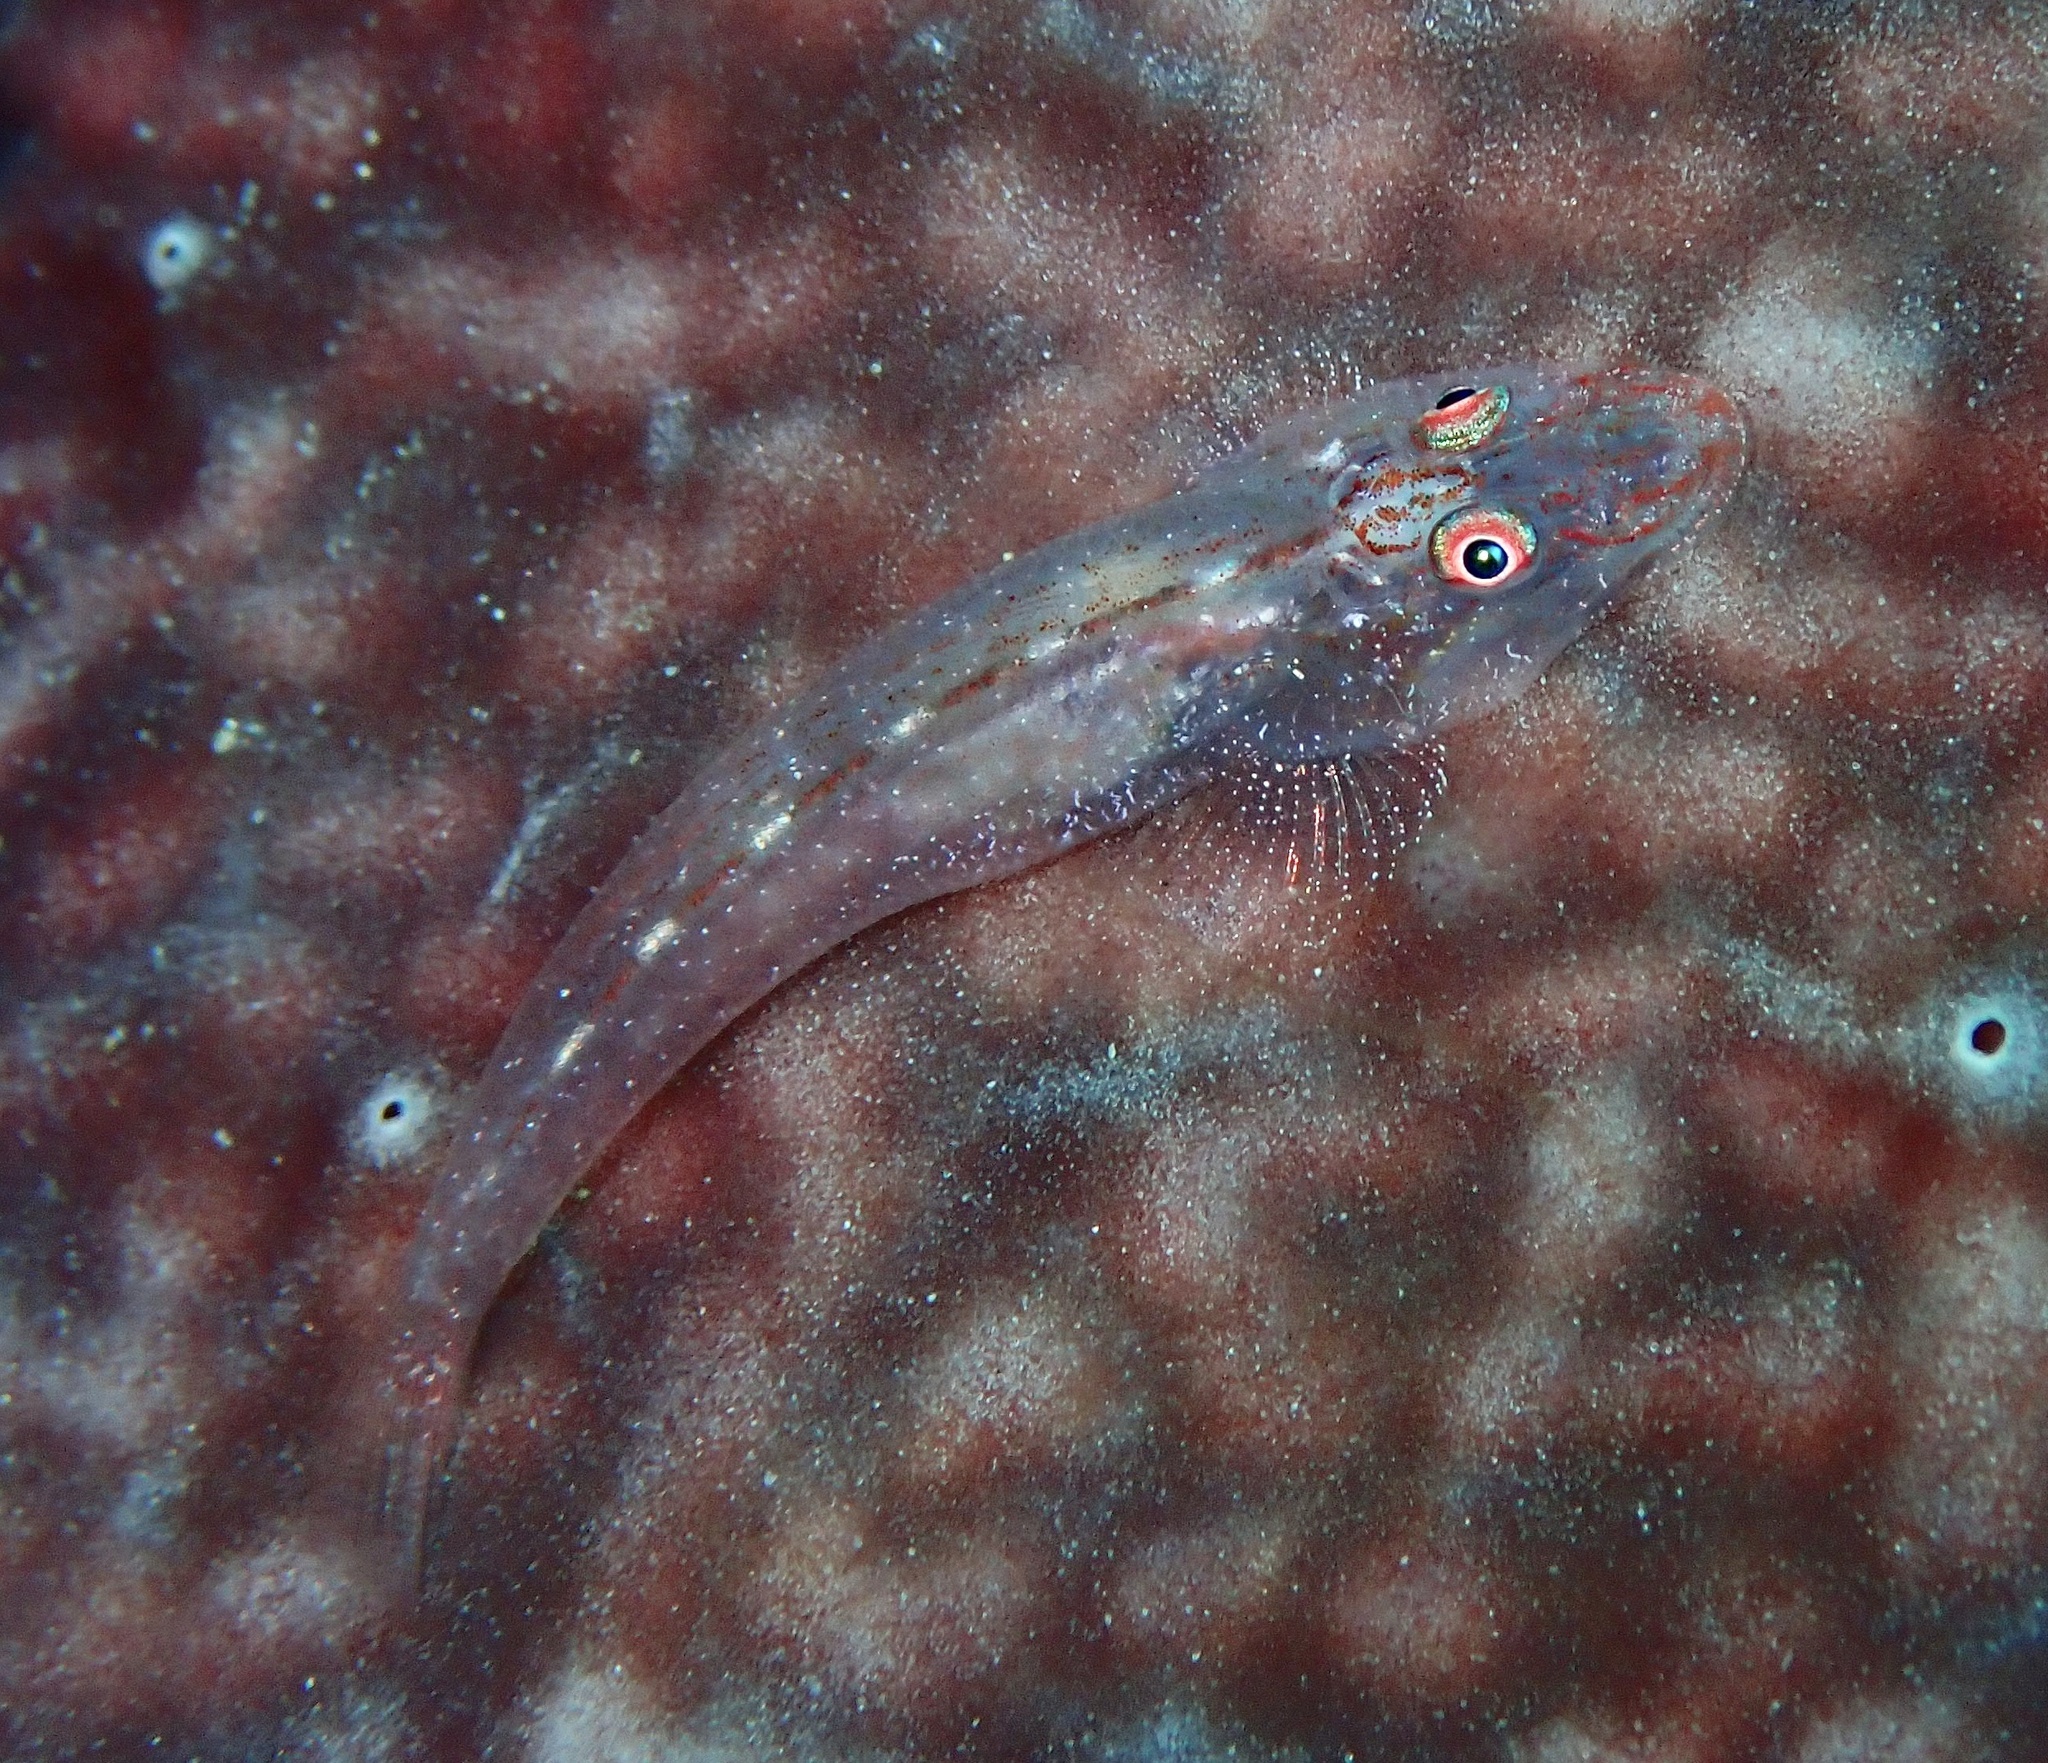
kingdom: Animalia
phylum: Chordata
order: Perciformes
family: Gobiidae
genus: Phyllogobius
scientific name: Phyllogobius platycephalops
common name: Flathead sponge-goby
